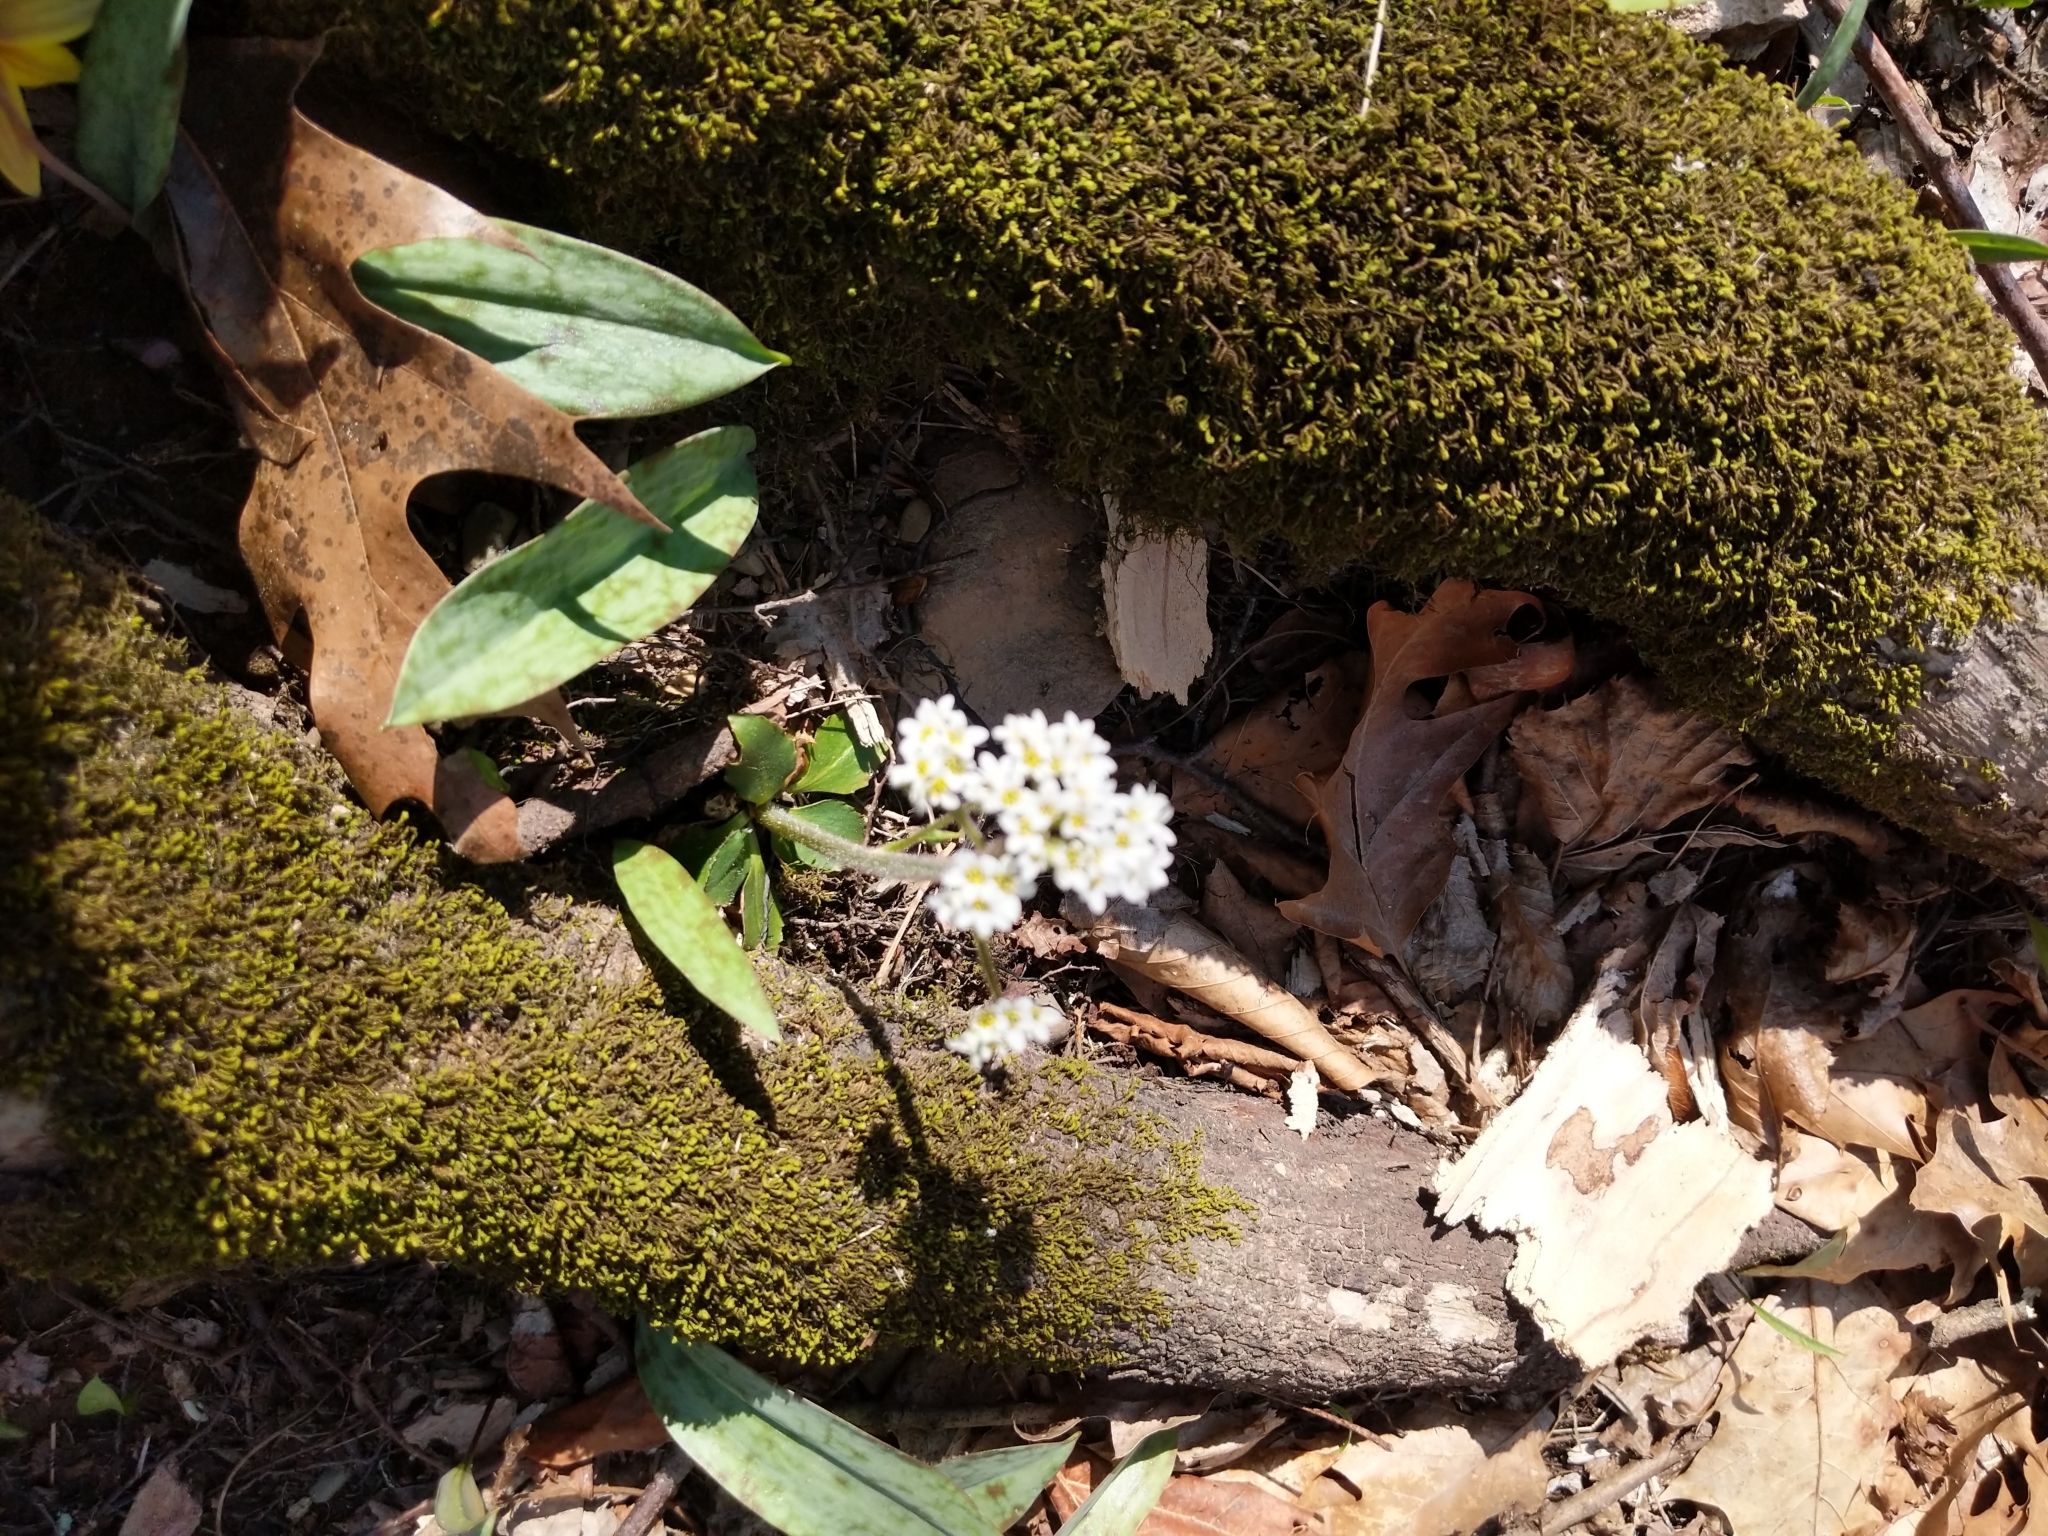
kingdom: Plantae
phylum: Tracheophyta
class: Magnoliopsida
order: Saxifragales
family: Saxifragaceae
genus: Micranthes
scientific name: Micranthes virginiensis
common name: Early saxifrage
